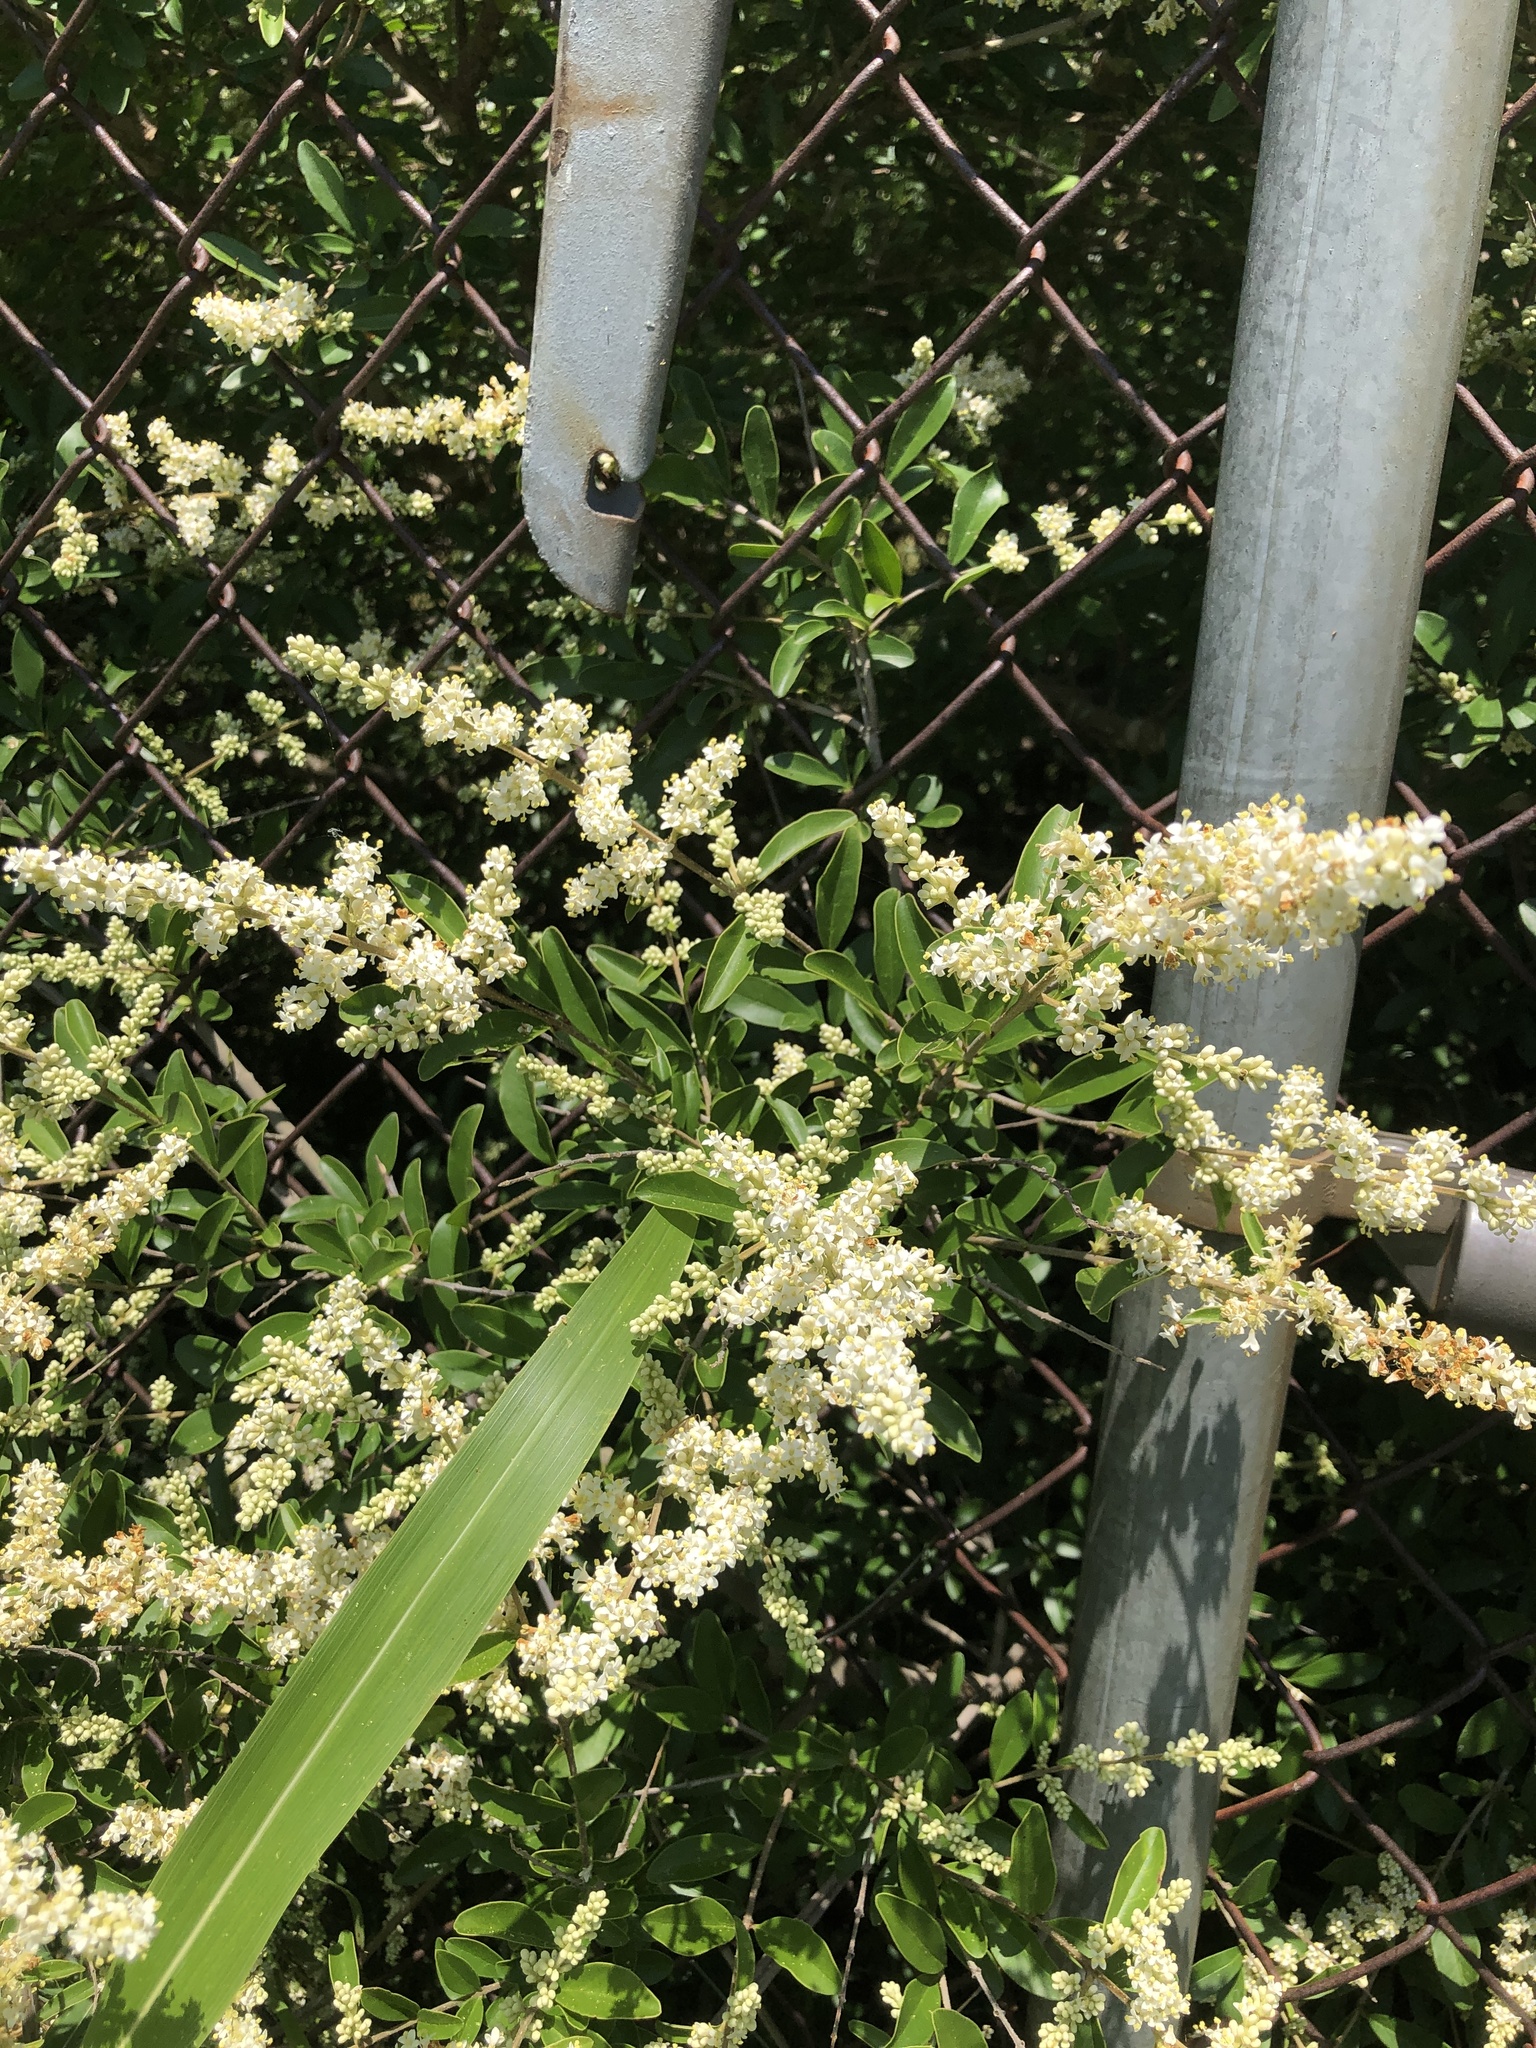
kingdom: Plantae
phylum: Tracheophyta
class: Magnoliopsida
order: Lamiales
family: Oleaceae
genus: Ligustrum
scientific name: Ligustrum quihoui
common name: Waxyleaf privet
